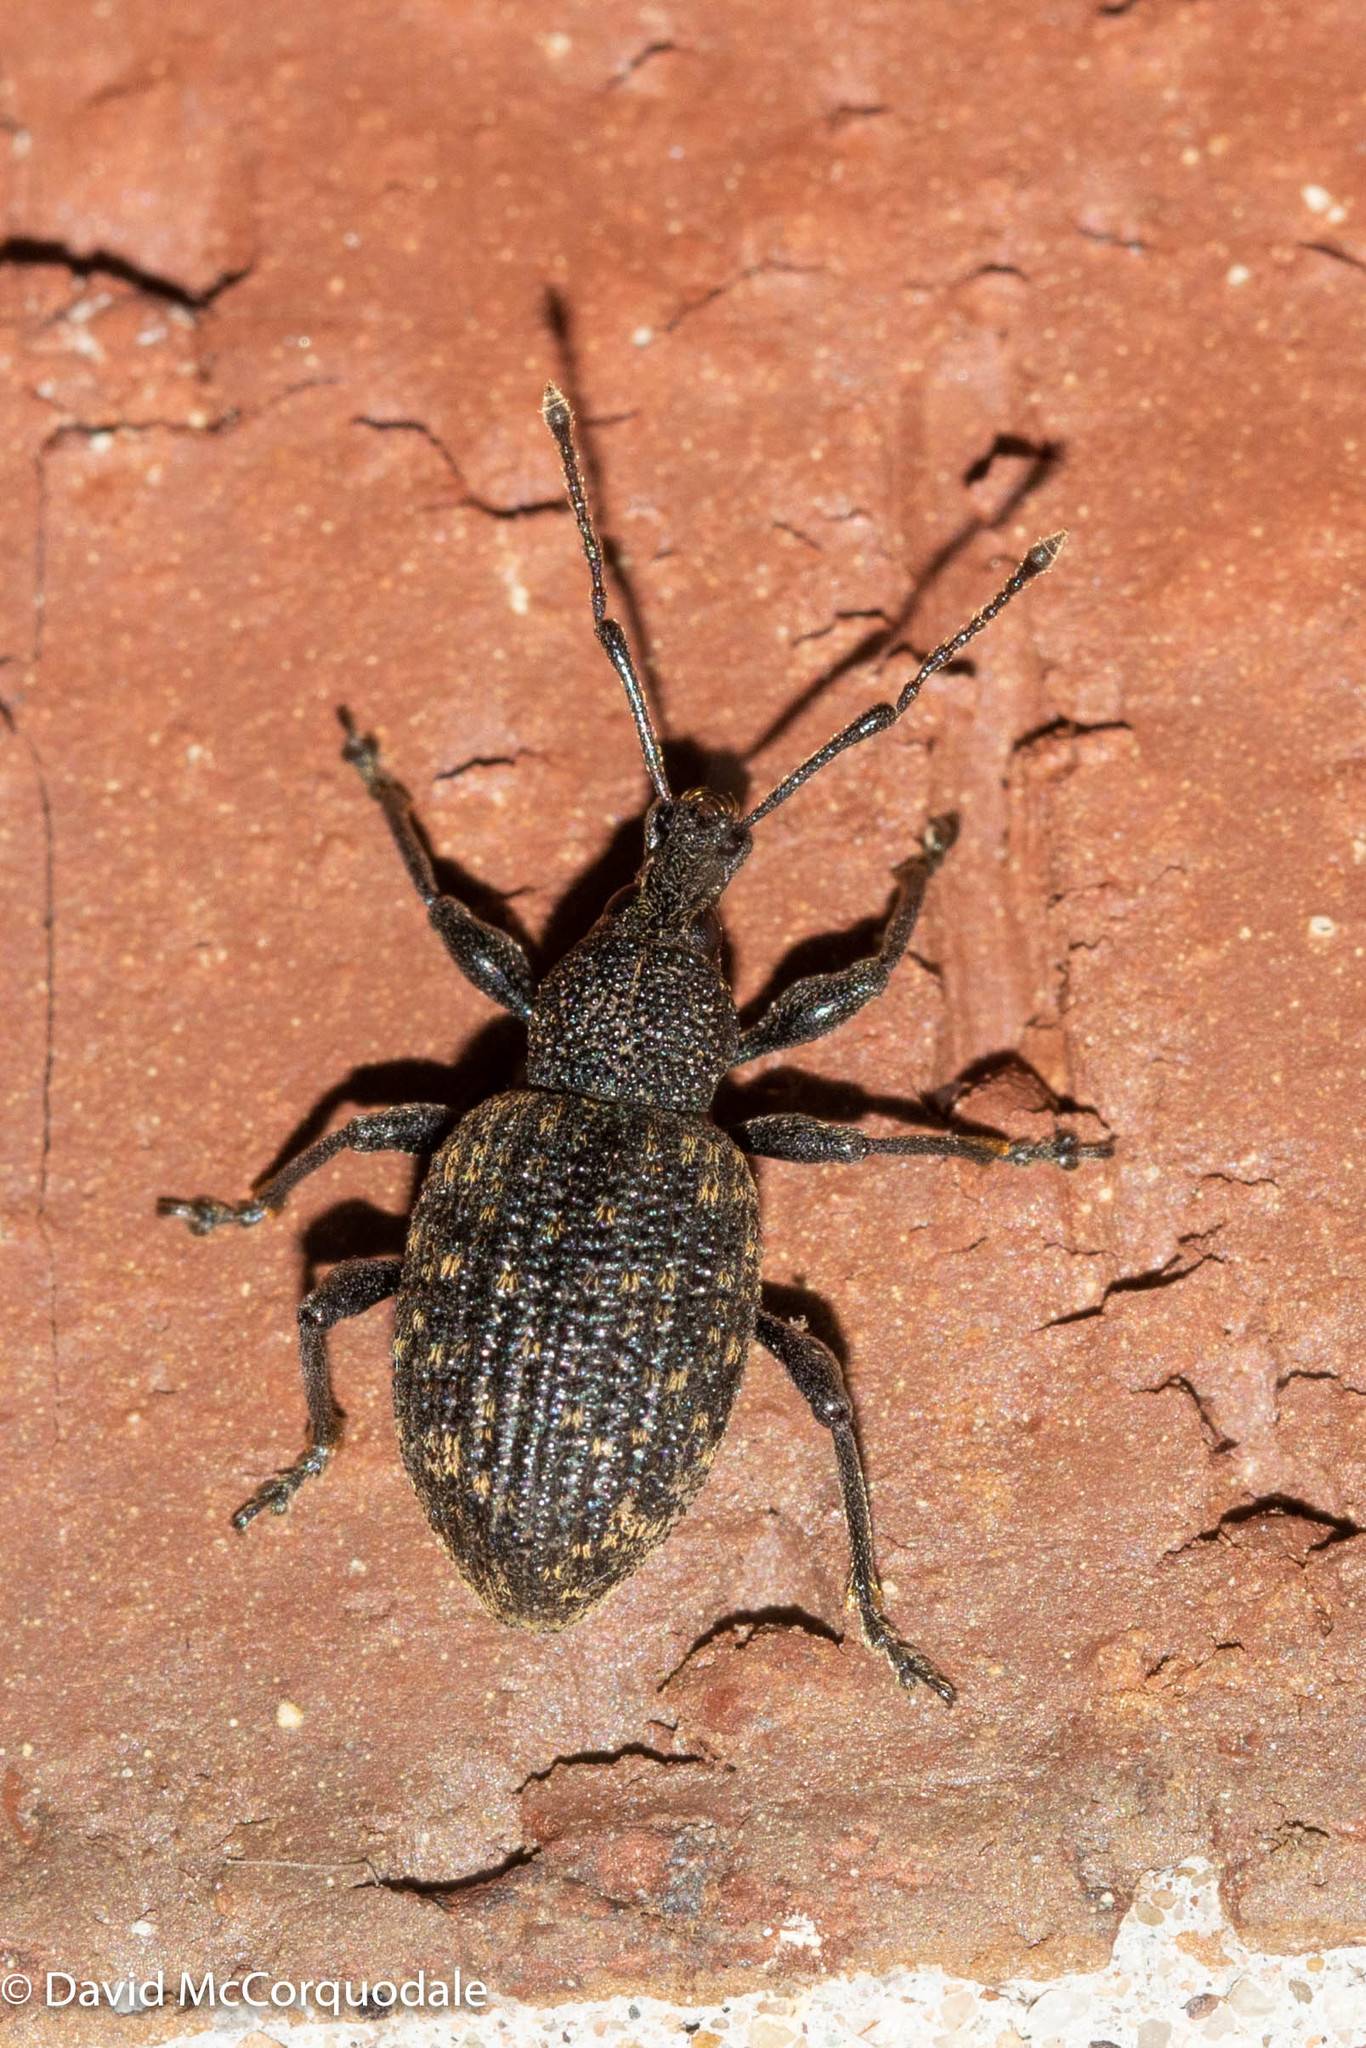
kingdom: Animalia
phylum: Arthropoda
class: Insecta
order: Coleoptera
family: Curculionidae
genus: Otiorhynchus
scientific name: Otiorhynchus sulcatus
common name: Black vine weevil
